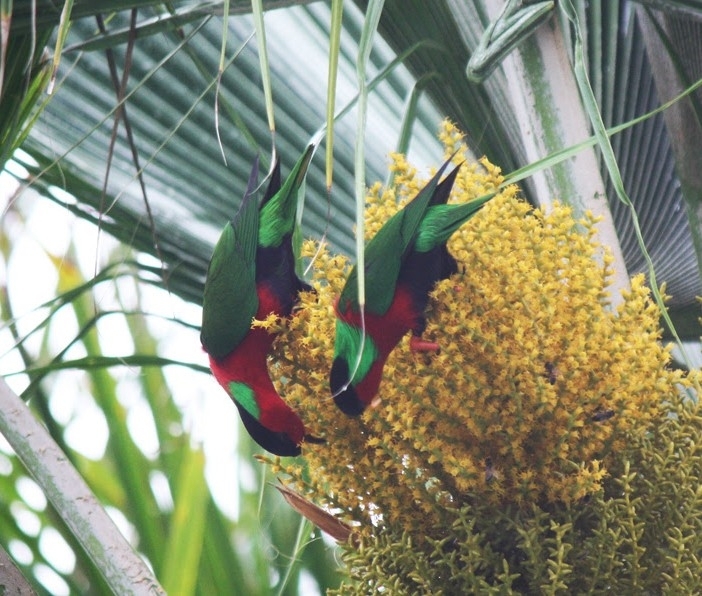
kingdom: Animalia
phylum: Chordata
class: Aves
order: Psittaciformes
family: Psittacidae
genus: Phigys
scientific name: Phigys solitarius
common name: Collared lory
